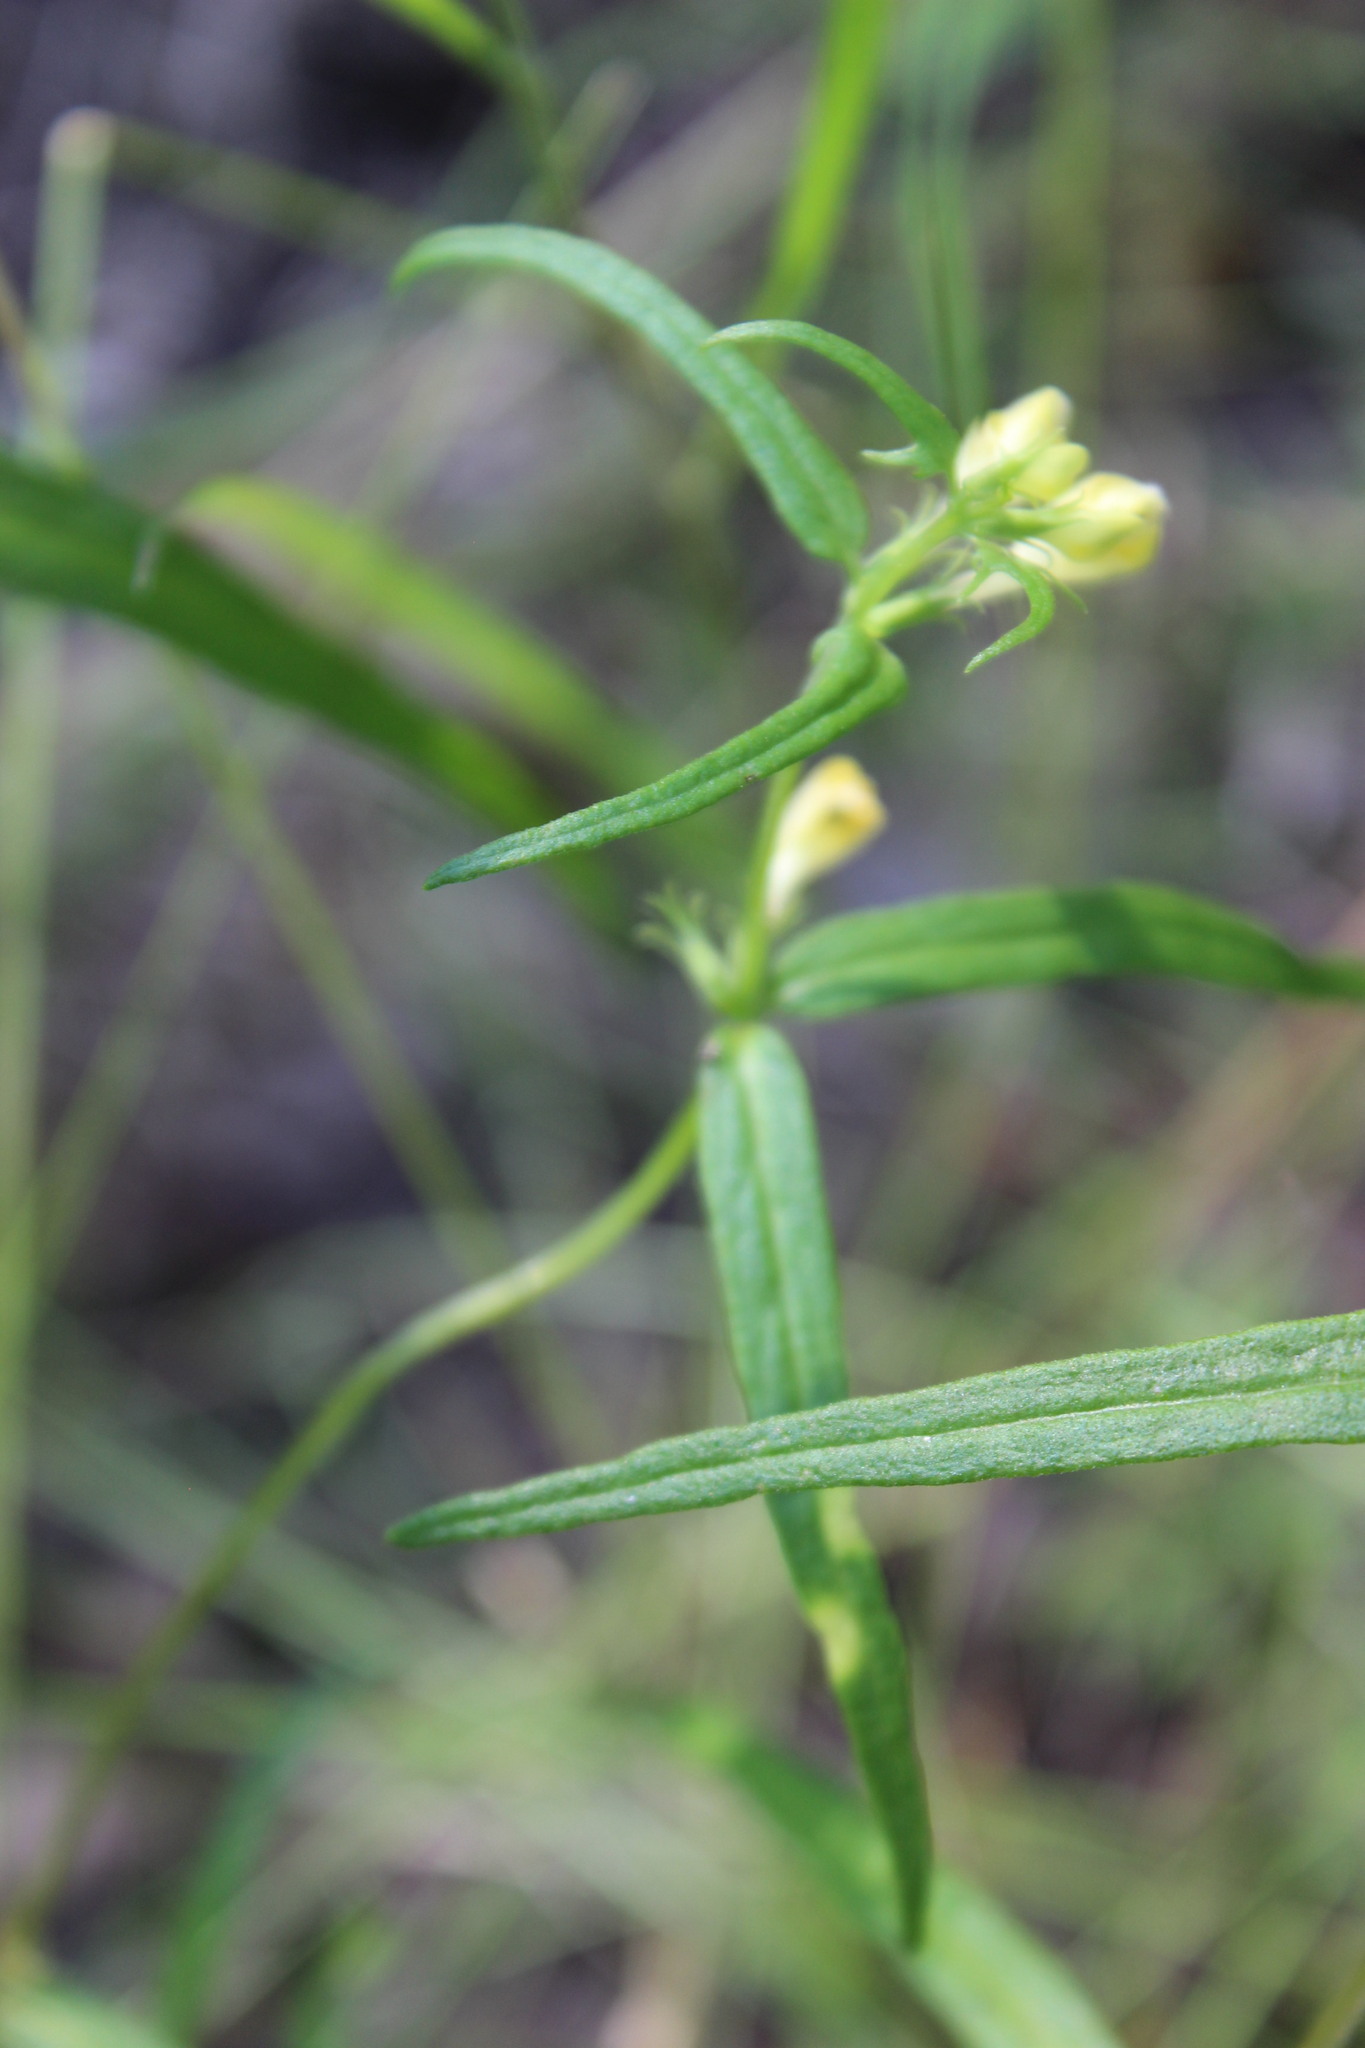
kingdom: Plantae
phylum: Tracheophyta
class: Magnoliopsida
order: Lamiales
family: Orobanchaceae
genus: Melampyrum
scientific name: Melampyrum pratense
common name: Common cow-wheat
